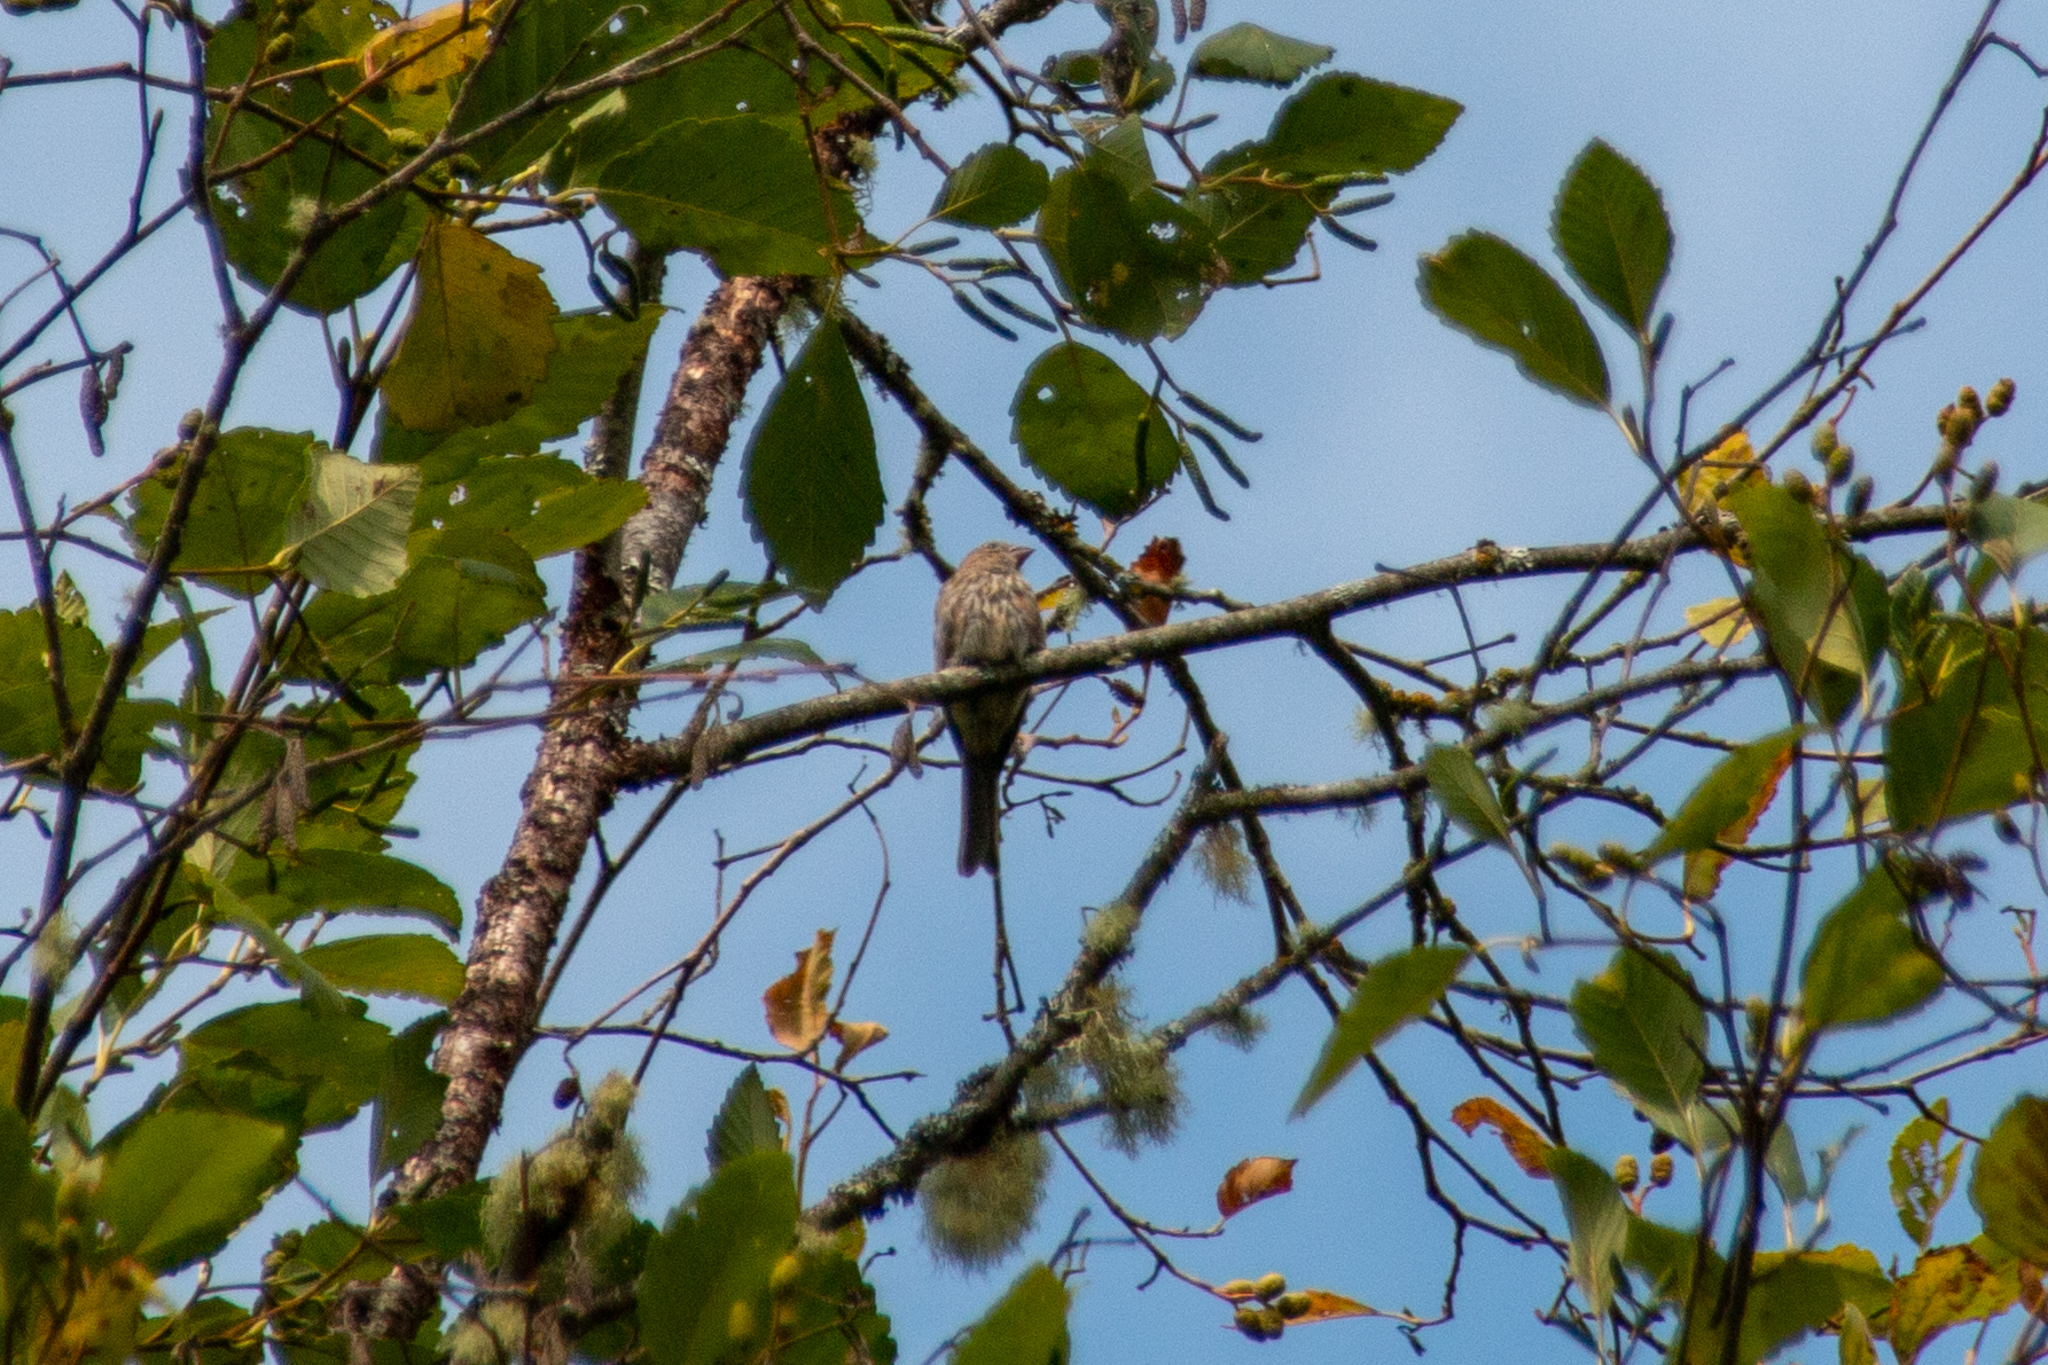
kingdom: Animalia
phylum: Chordata
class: Aves
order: Passeriformes
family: Fringillidae
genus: Haemorhous
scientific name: Haemorhous mexicanus
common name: House finch
